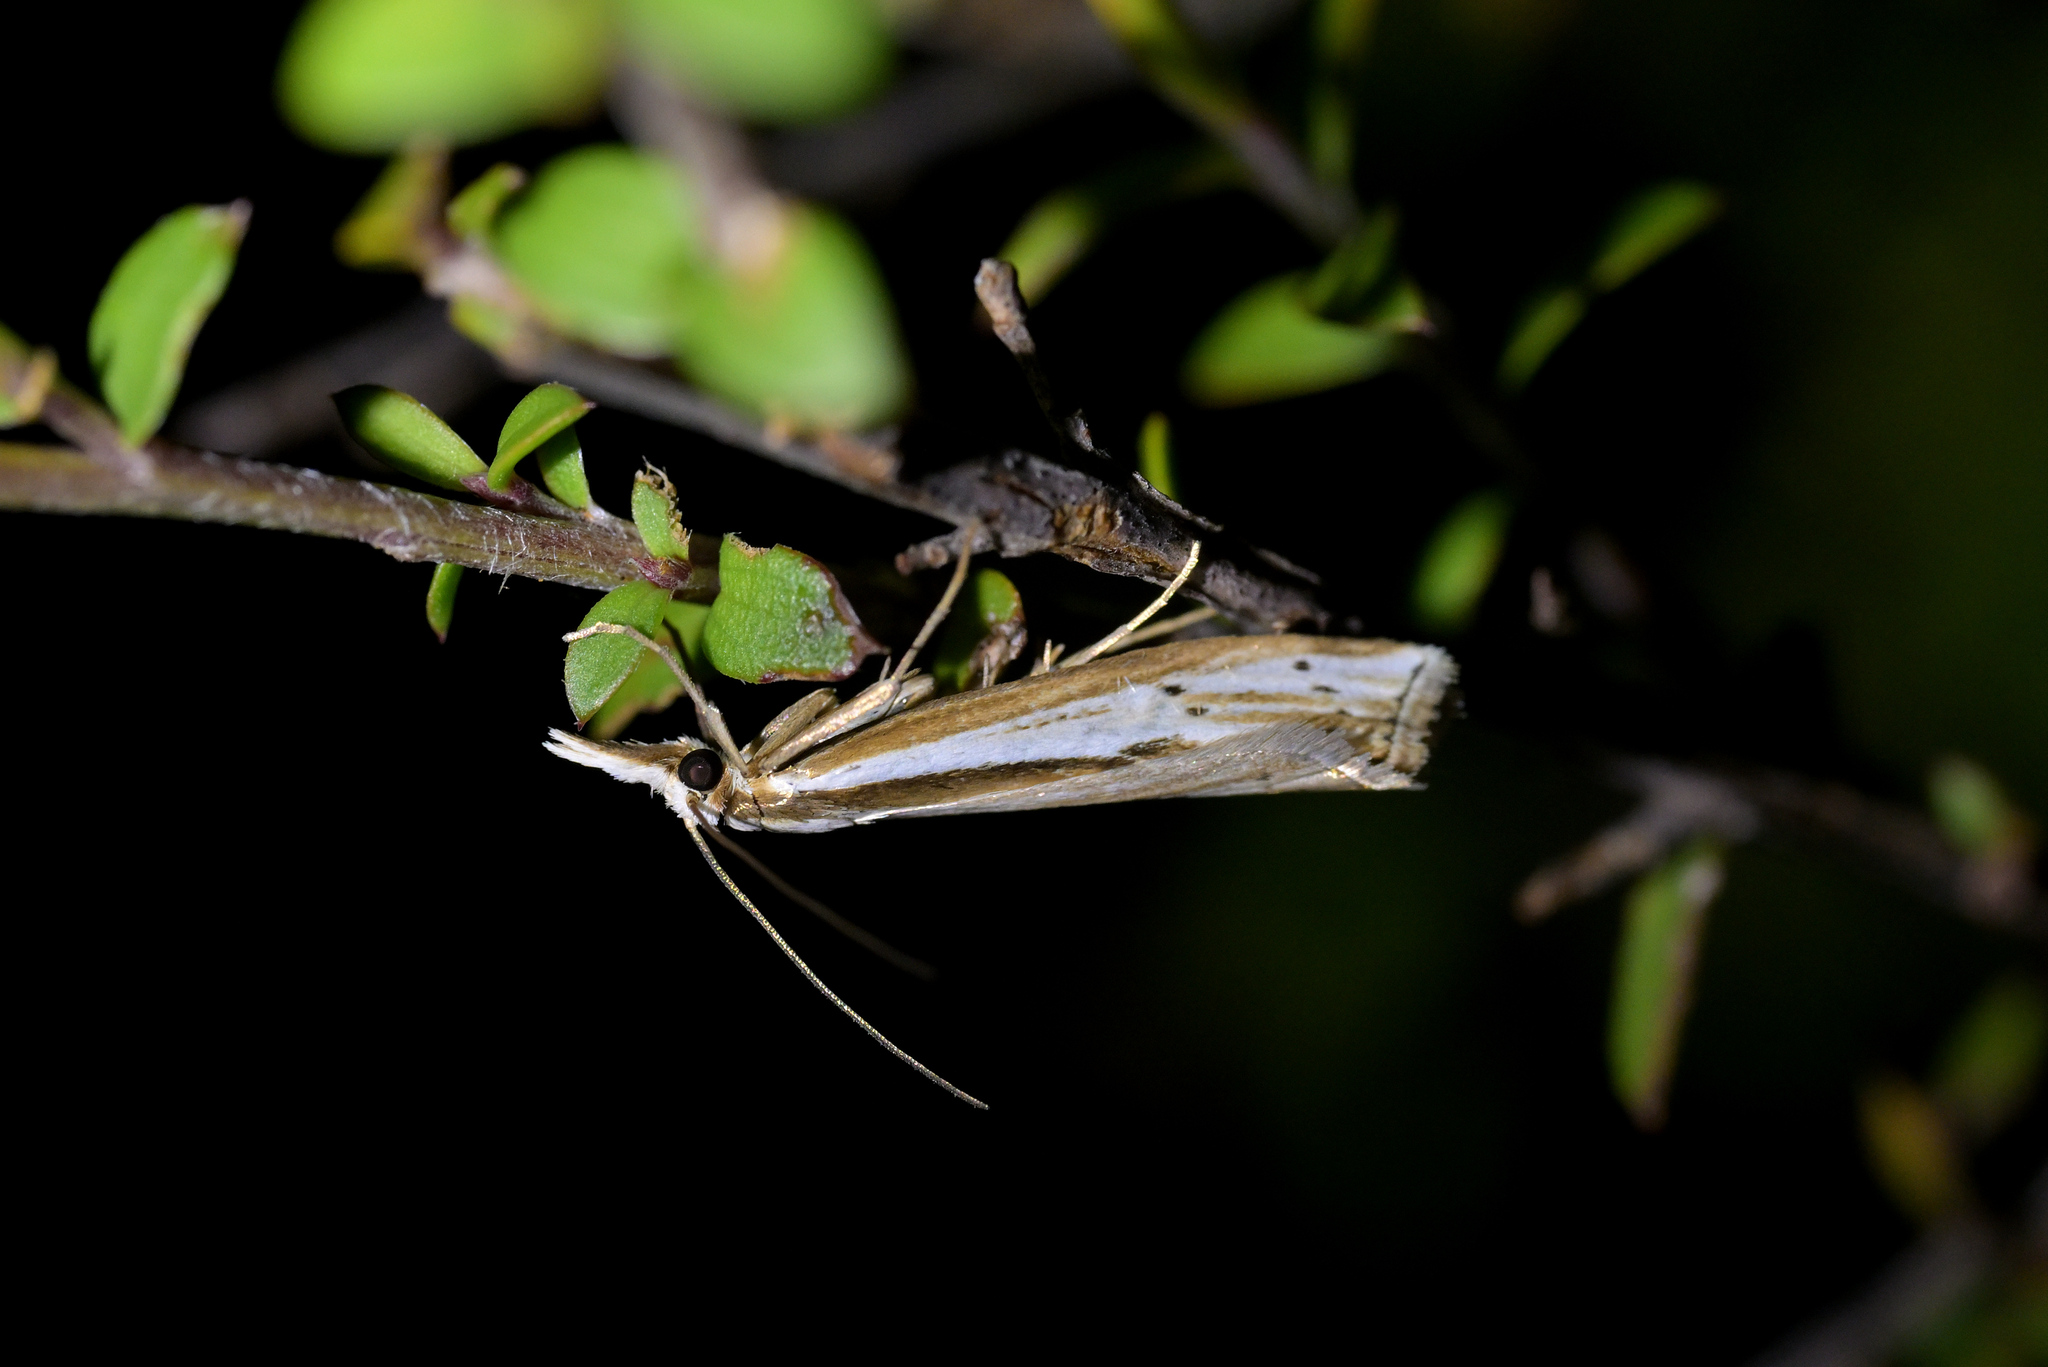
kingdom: Animalia
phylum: Arthropoda
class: Insecta
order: Lepidoptera
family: Crambidae
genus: Orocrambus
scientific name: Orocrambus ramosellus
